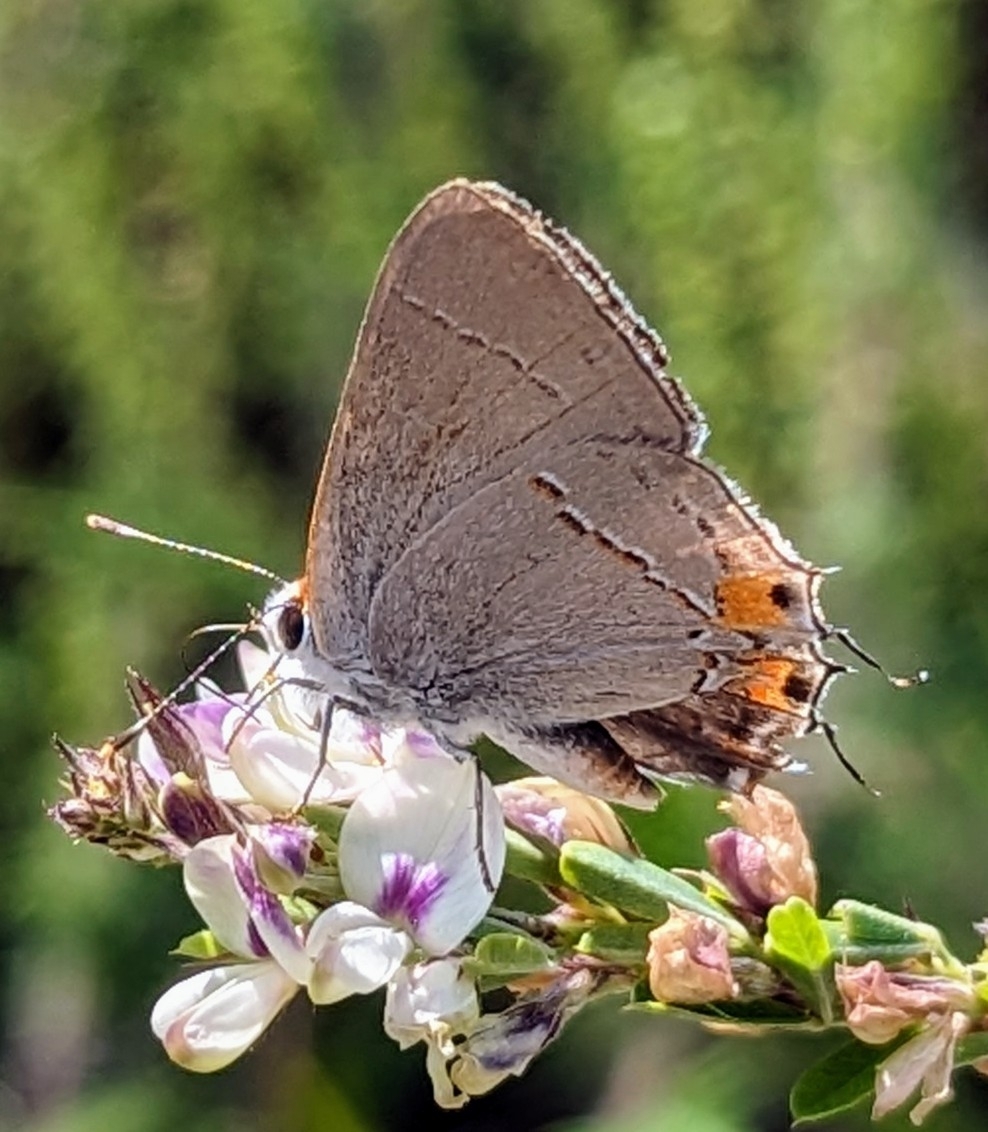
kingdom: Animalia
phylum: Arthropoda
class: Insecta
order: Lepidoptera
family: Lycaenidae
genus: Strymon
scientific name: Strymon melinus
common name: Gray hairstreak
